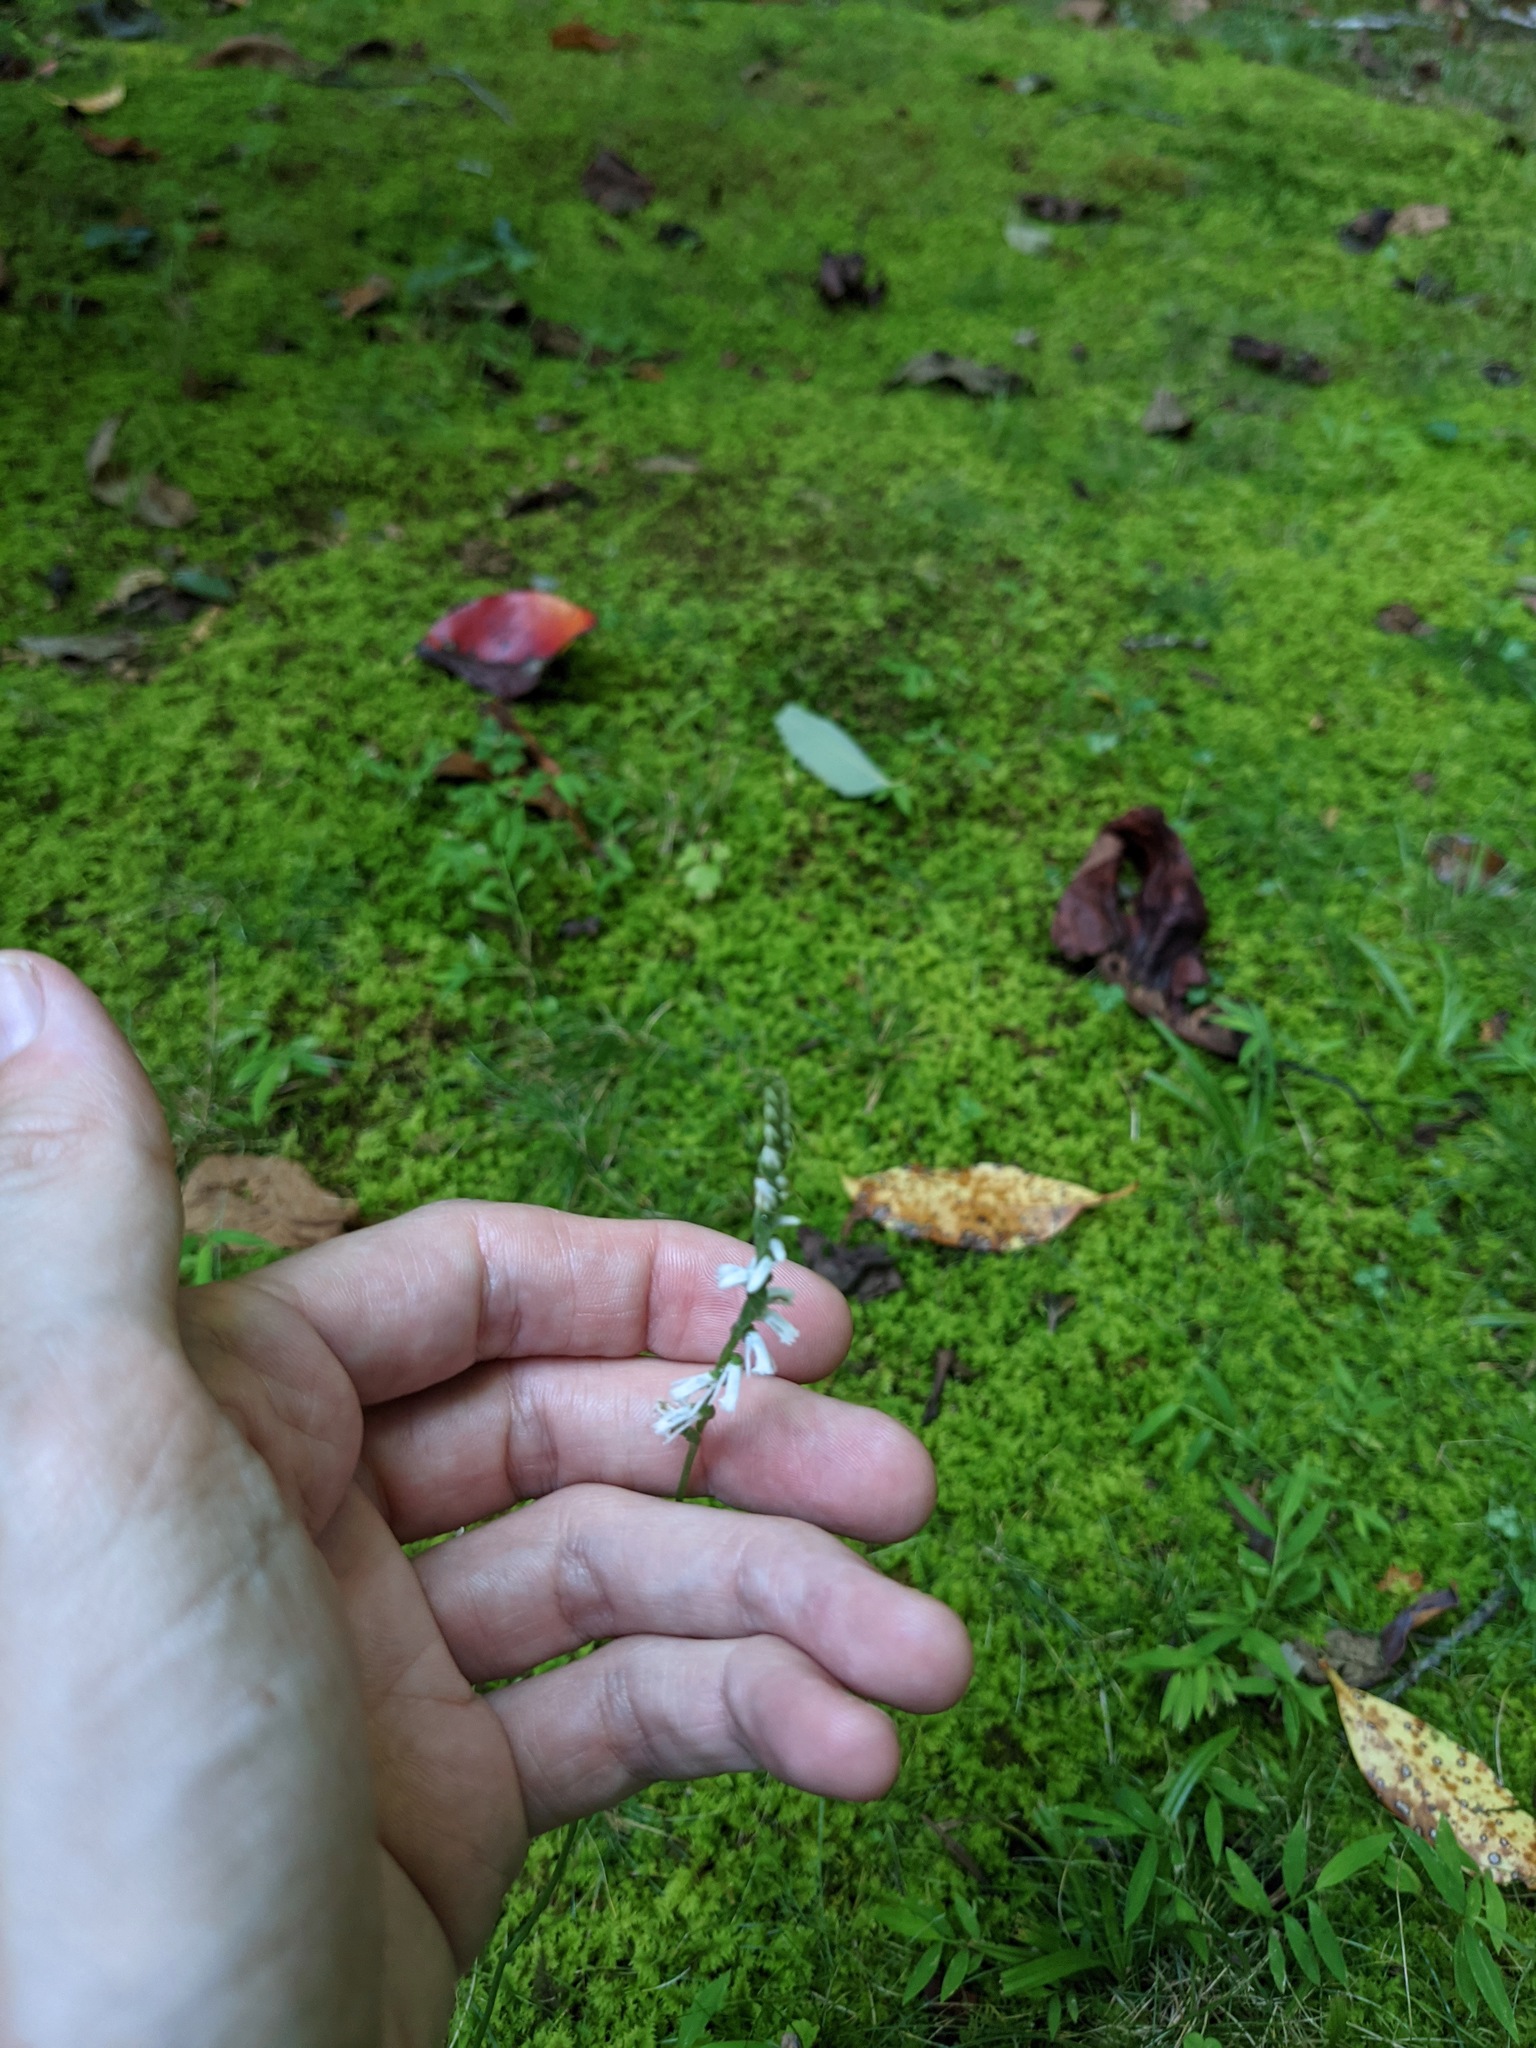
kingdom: Plantae
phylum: Tracheophyta
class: Liliopsida
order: Asparagales
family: Orchidaceae
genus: Spiranthes
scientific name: Spiranthes lacera
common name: Northern slender ladies'-tresses
